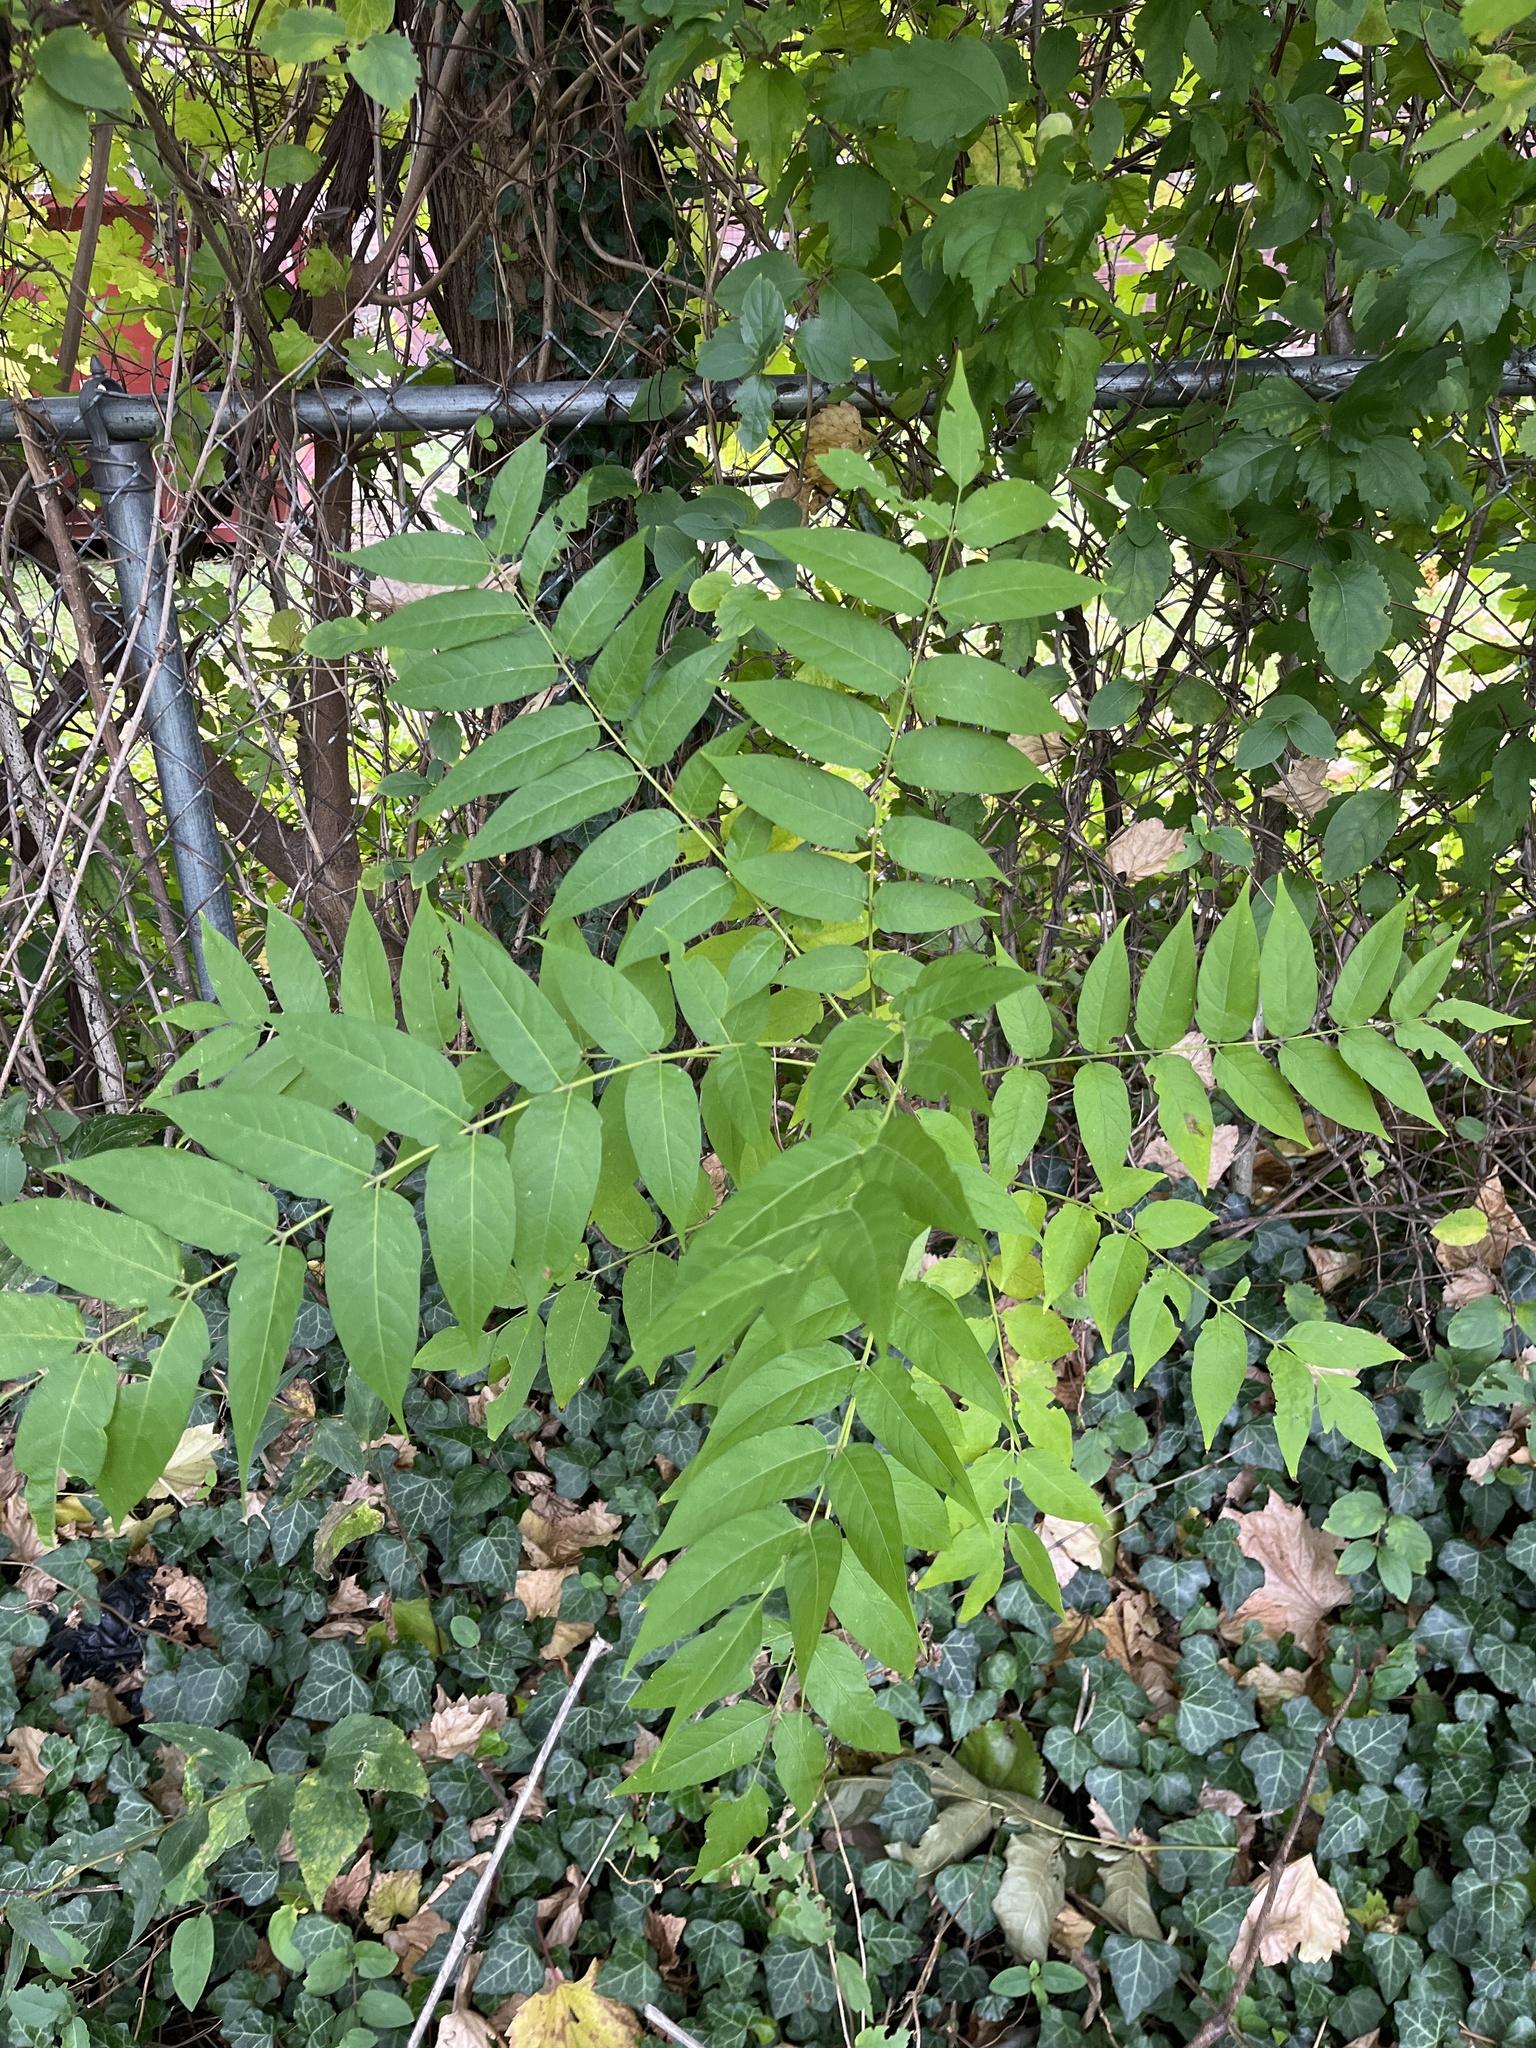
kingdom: Plantae
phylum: Tracheophyta
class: Magnoliopsida
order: Sapindales
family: Simaroubaceae
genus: Ailanthus
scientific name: Ailanthus altissima
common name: Tree-of-heaven
